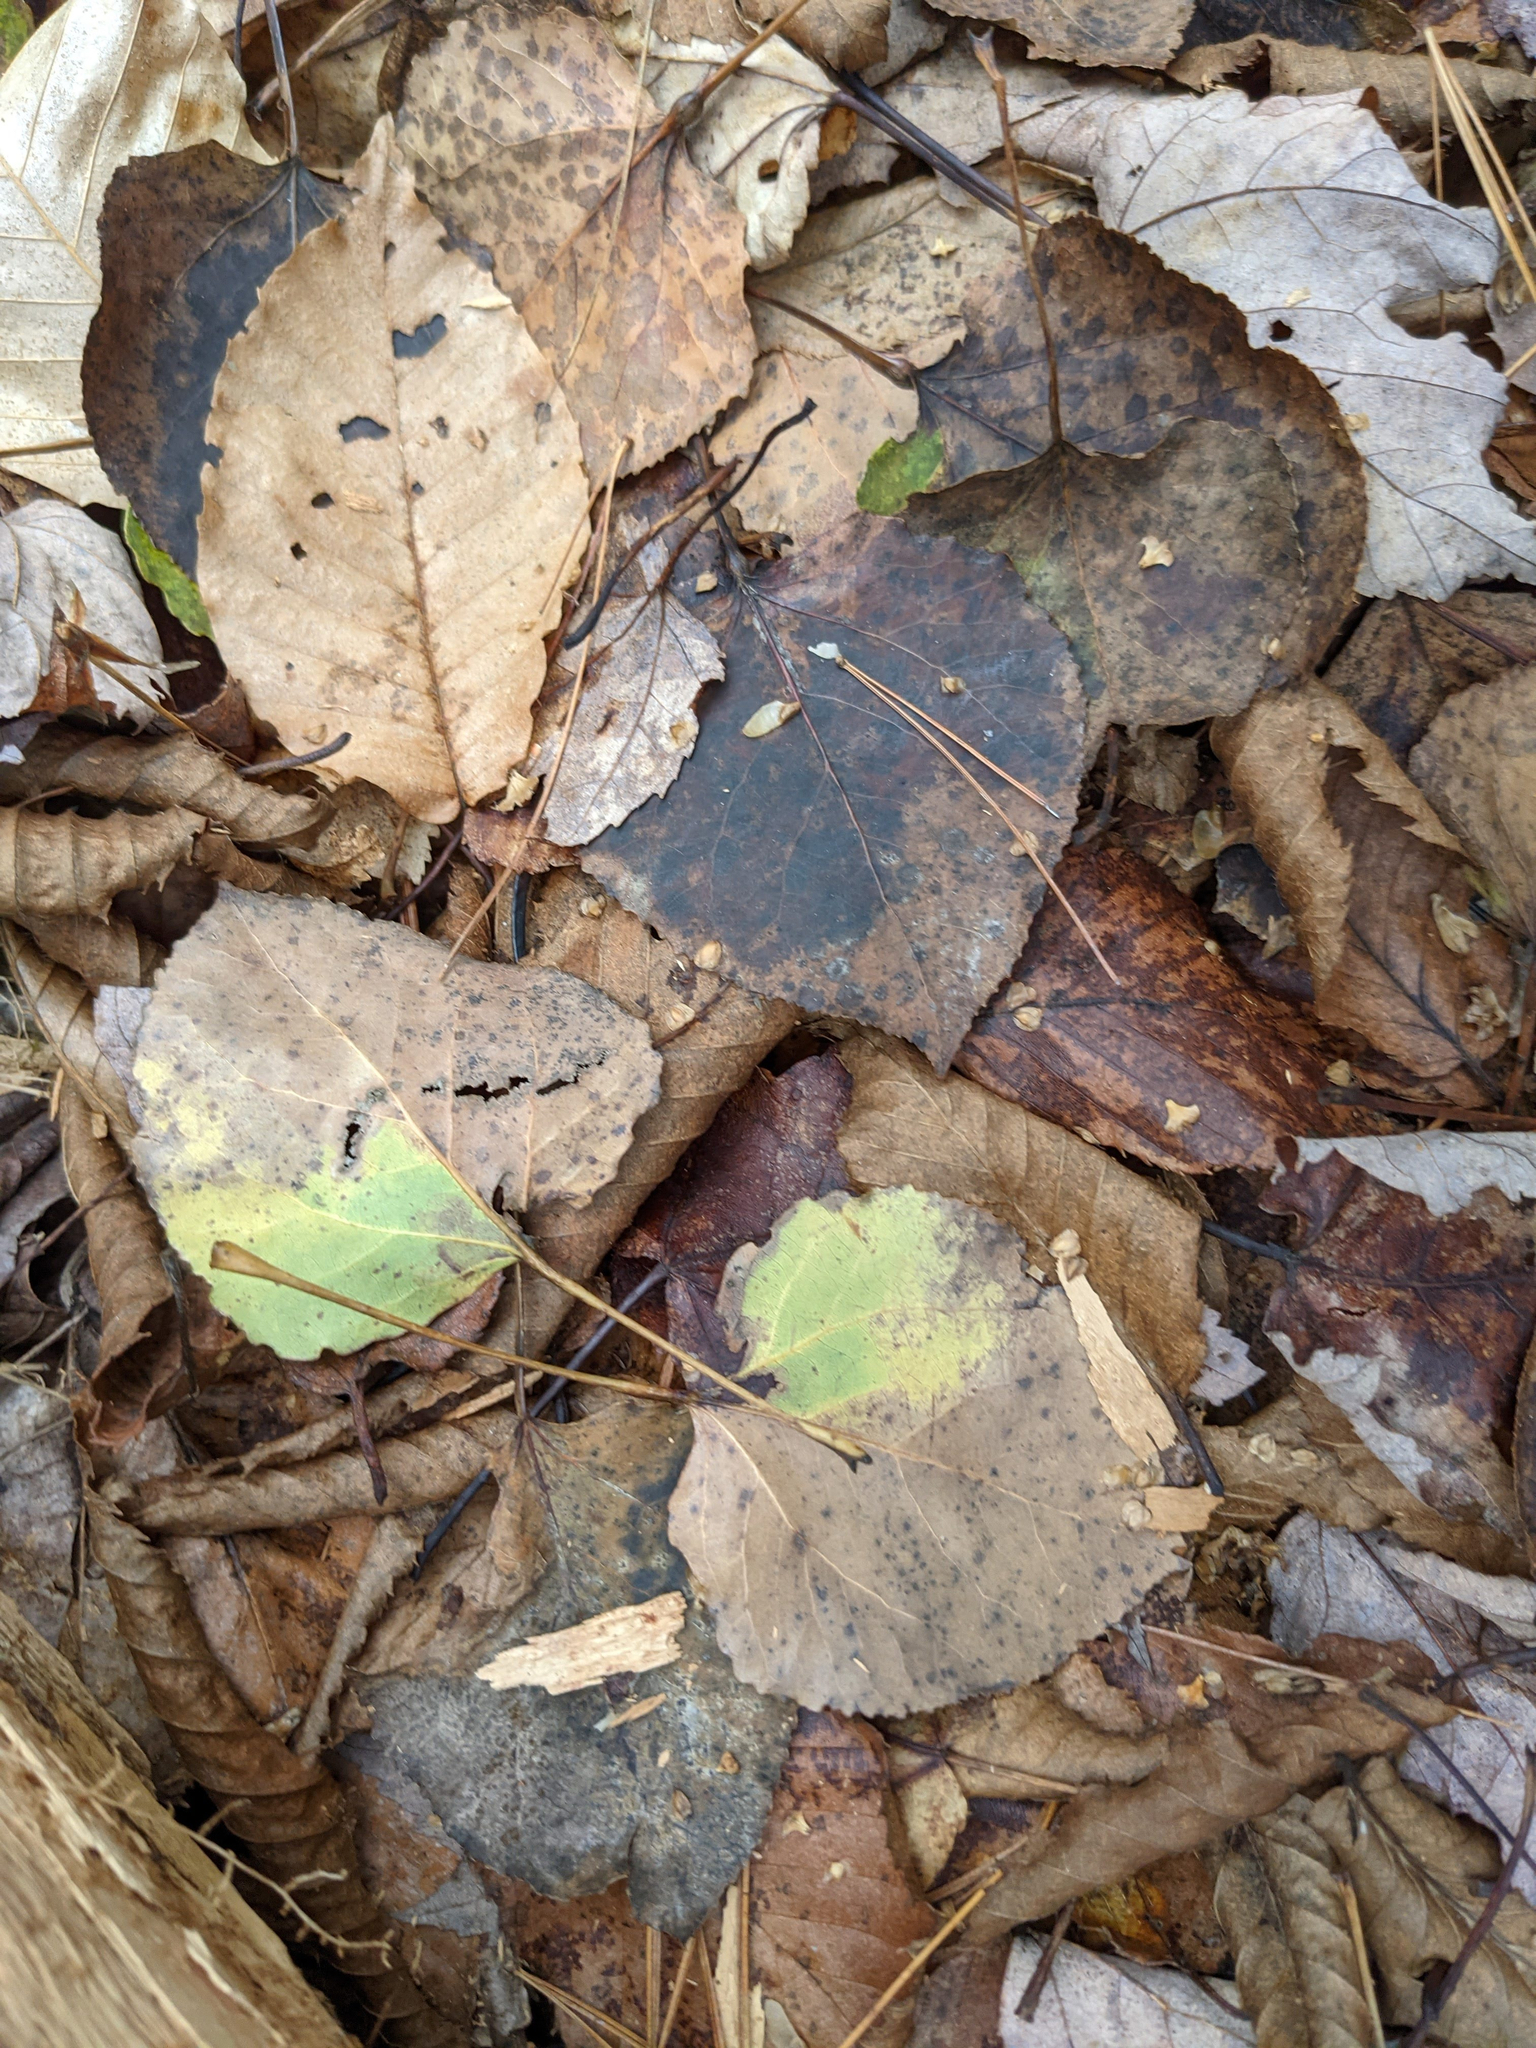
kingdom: Plantae
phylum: Tracheophyta
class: Magnoliopsida
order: Malpighiales
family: Salicaceae
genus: Populus
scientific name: Populus tremuloides
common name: Quaking aspen
